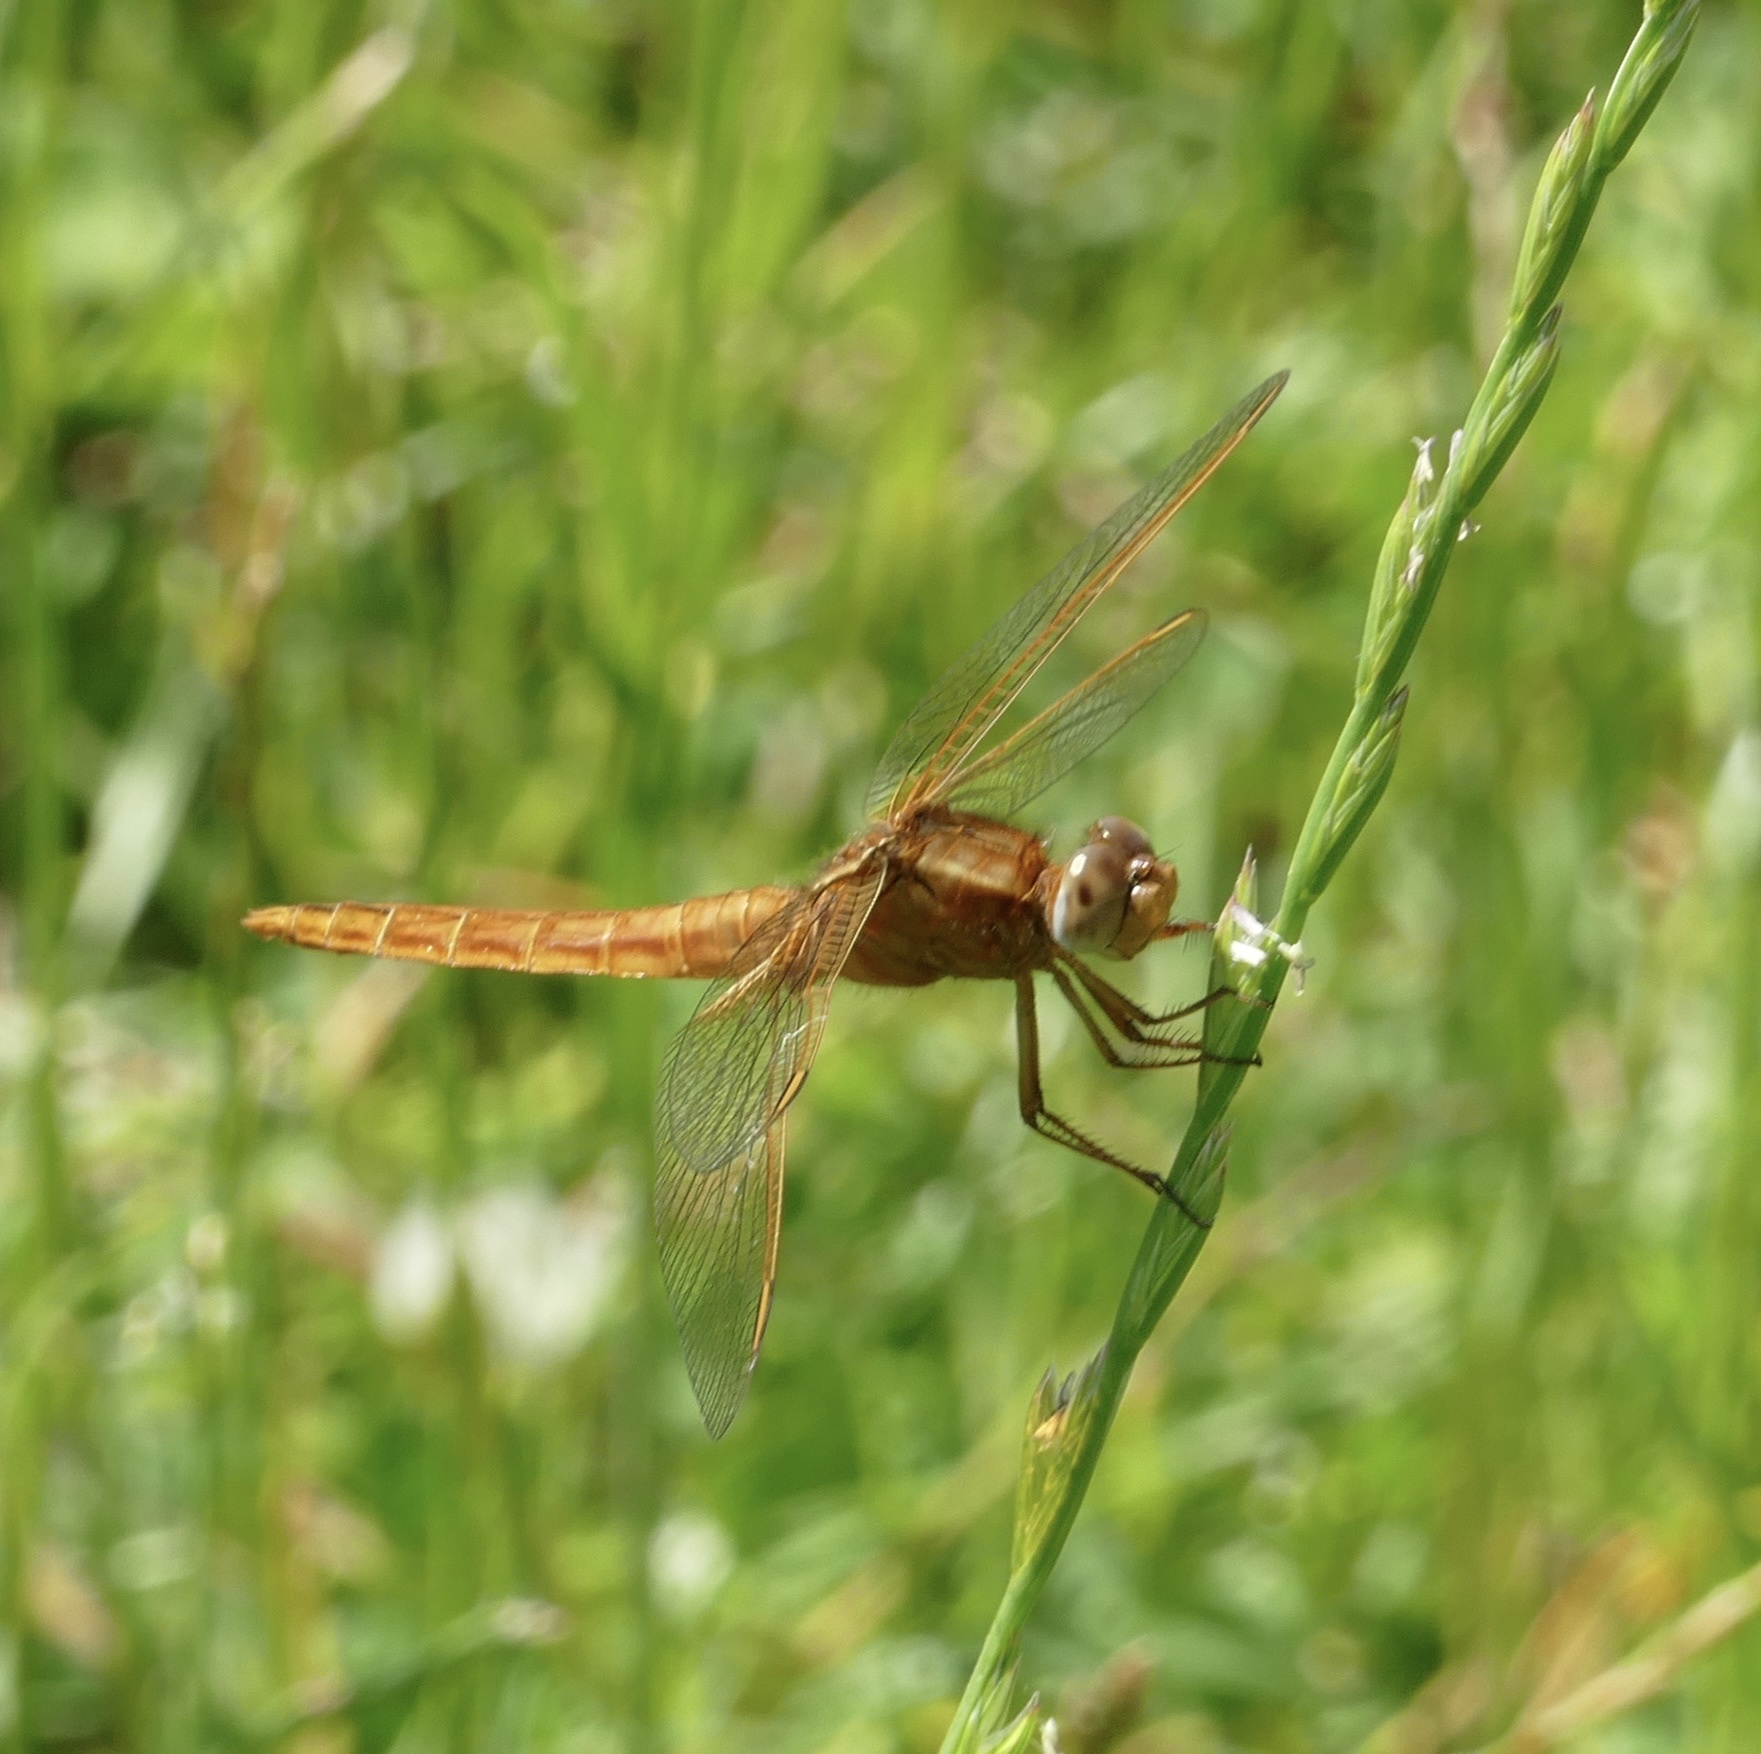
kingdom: Animalia
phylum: Arthropoda
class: Insecta
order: Odonata
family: Libellulidae
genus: Crocothemis
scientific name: Crocothemis erythraea
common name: Scarlet dragonfly
